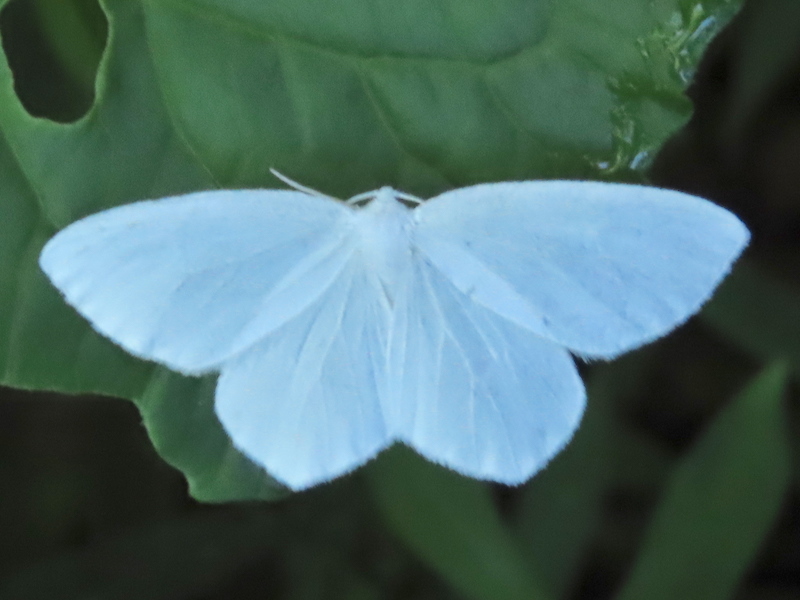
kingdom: Animalia
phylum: Arthropoda
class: Insecta
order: Lepidoptera
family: Geometridae
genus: Eugonobapta
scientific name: Eugonobapta nivosaria
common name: Snowy geometer
